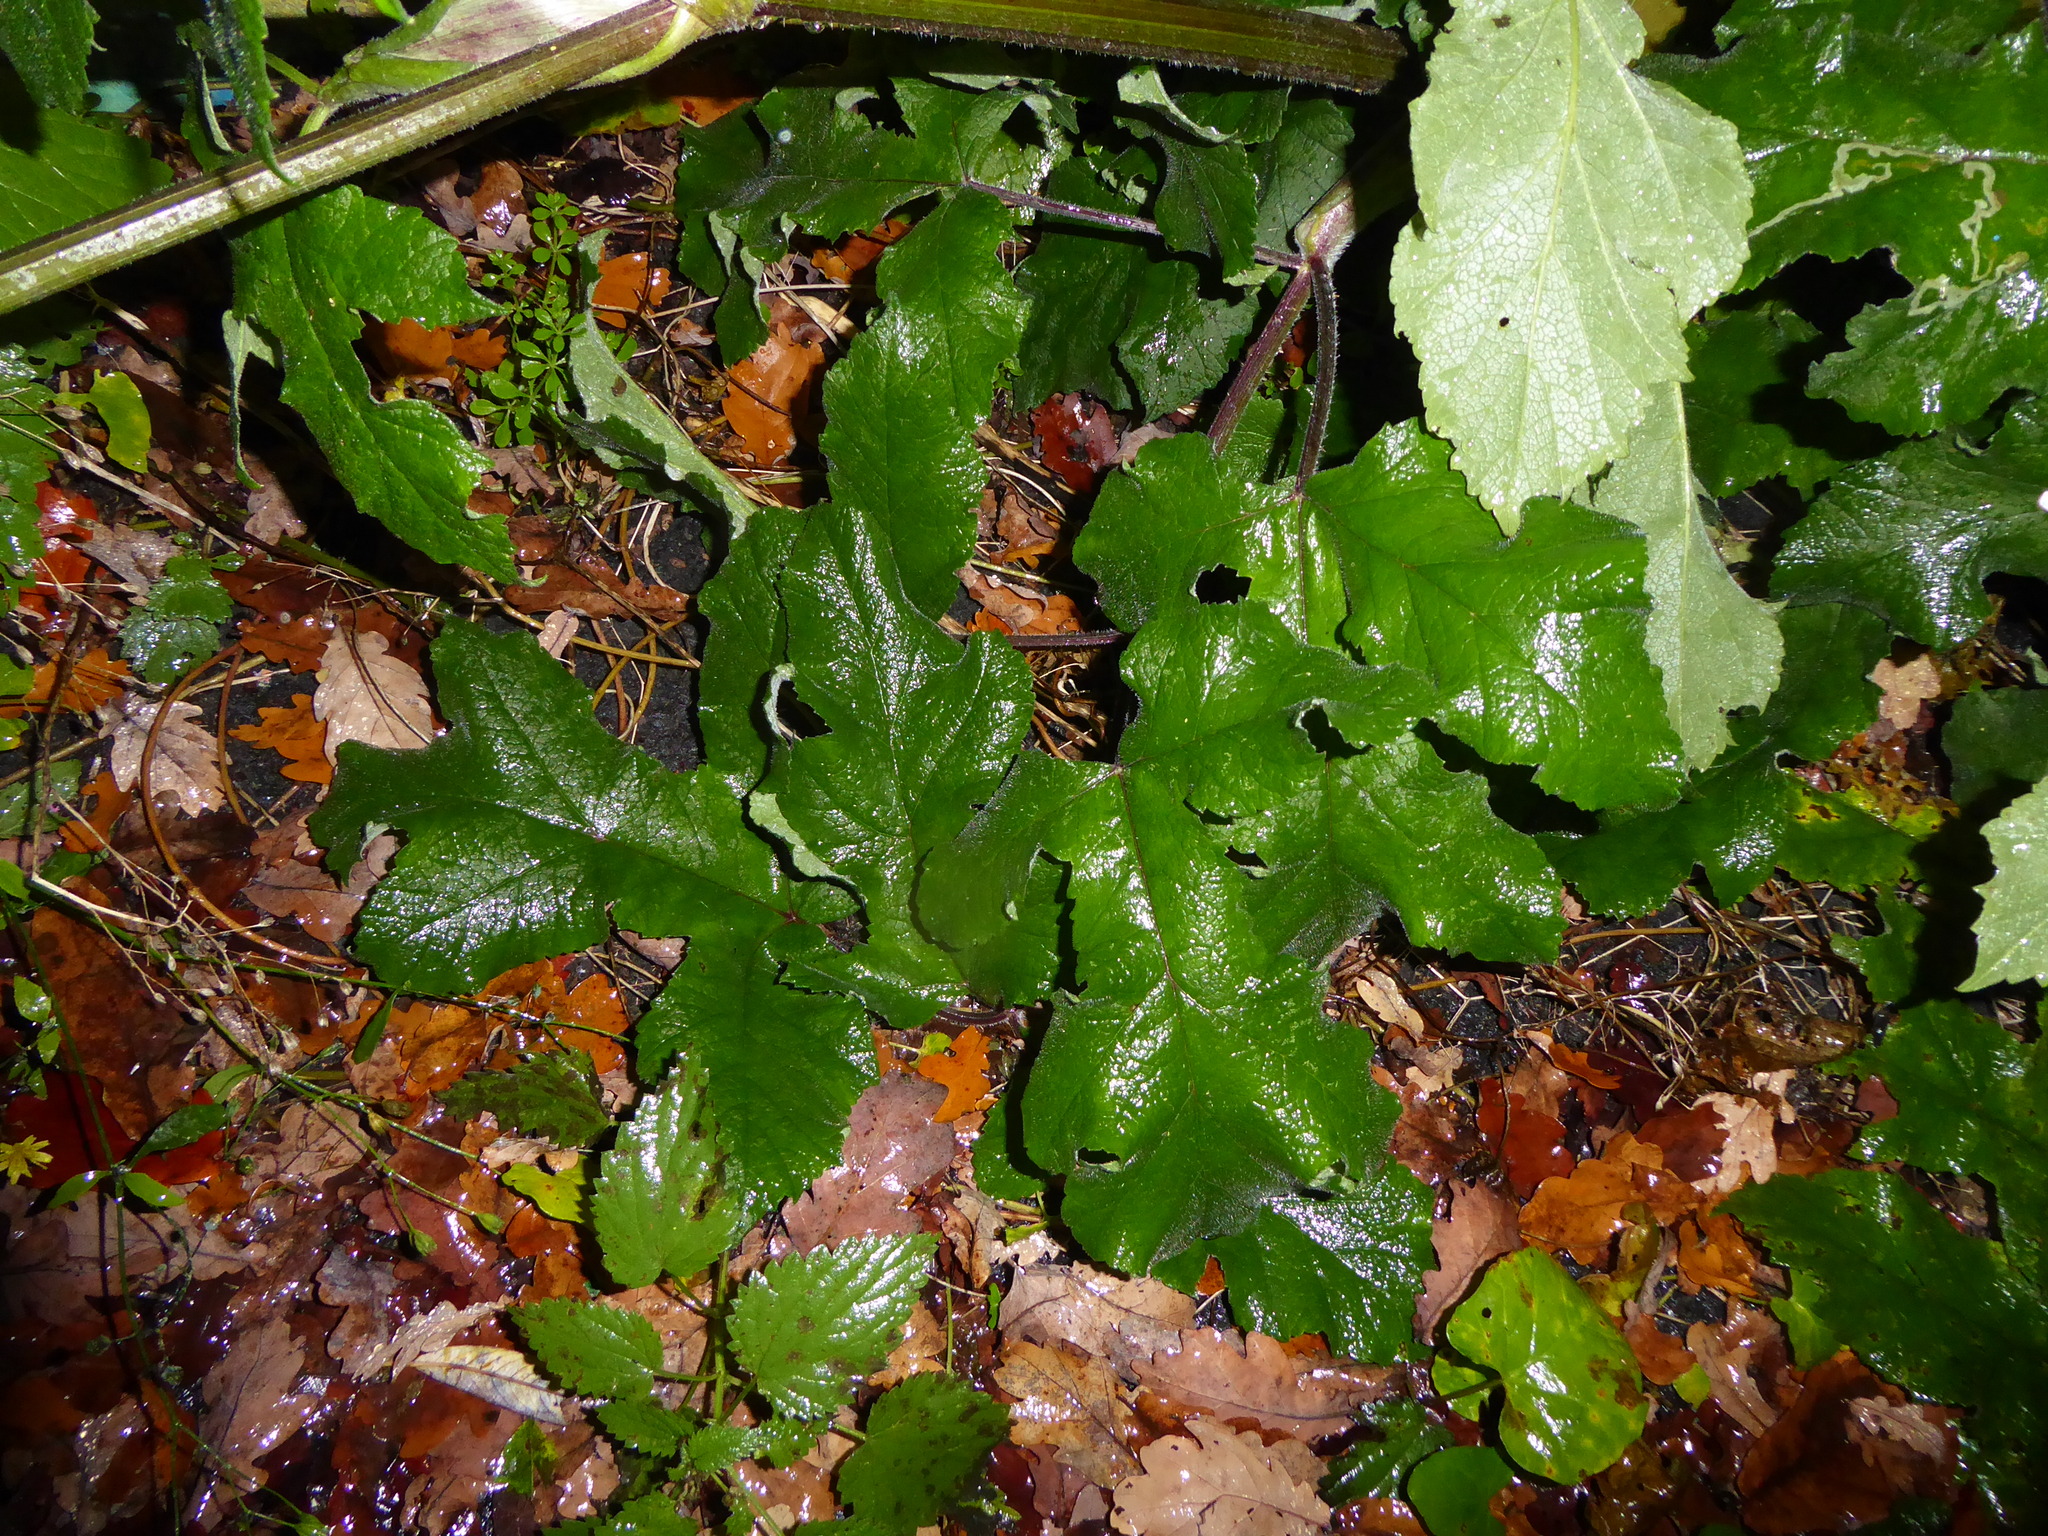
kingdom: Plantae
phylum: Tracheophyta
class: Magnoliopsida
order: Apiales
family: Apiaceae
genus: Heracleum
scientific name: Heracleum sphondylium
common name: Hogweed
